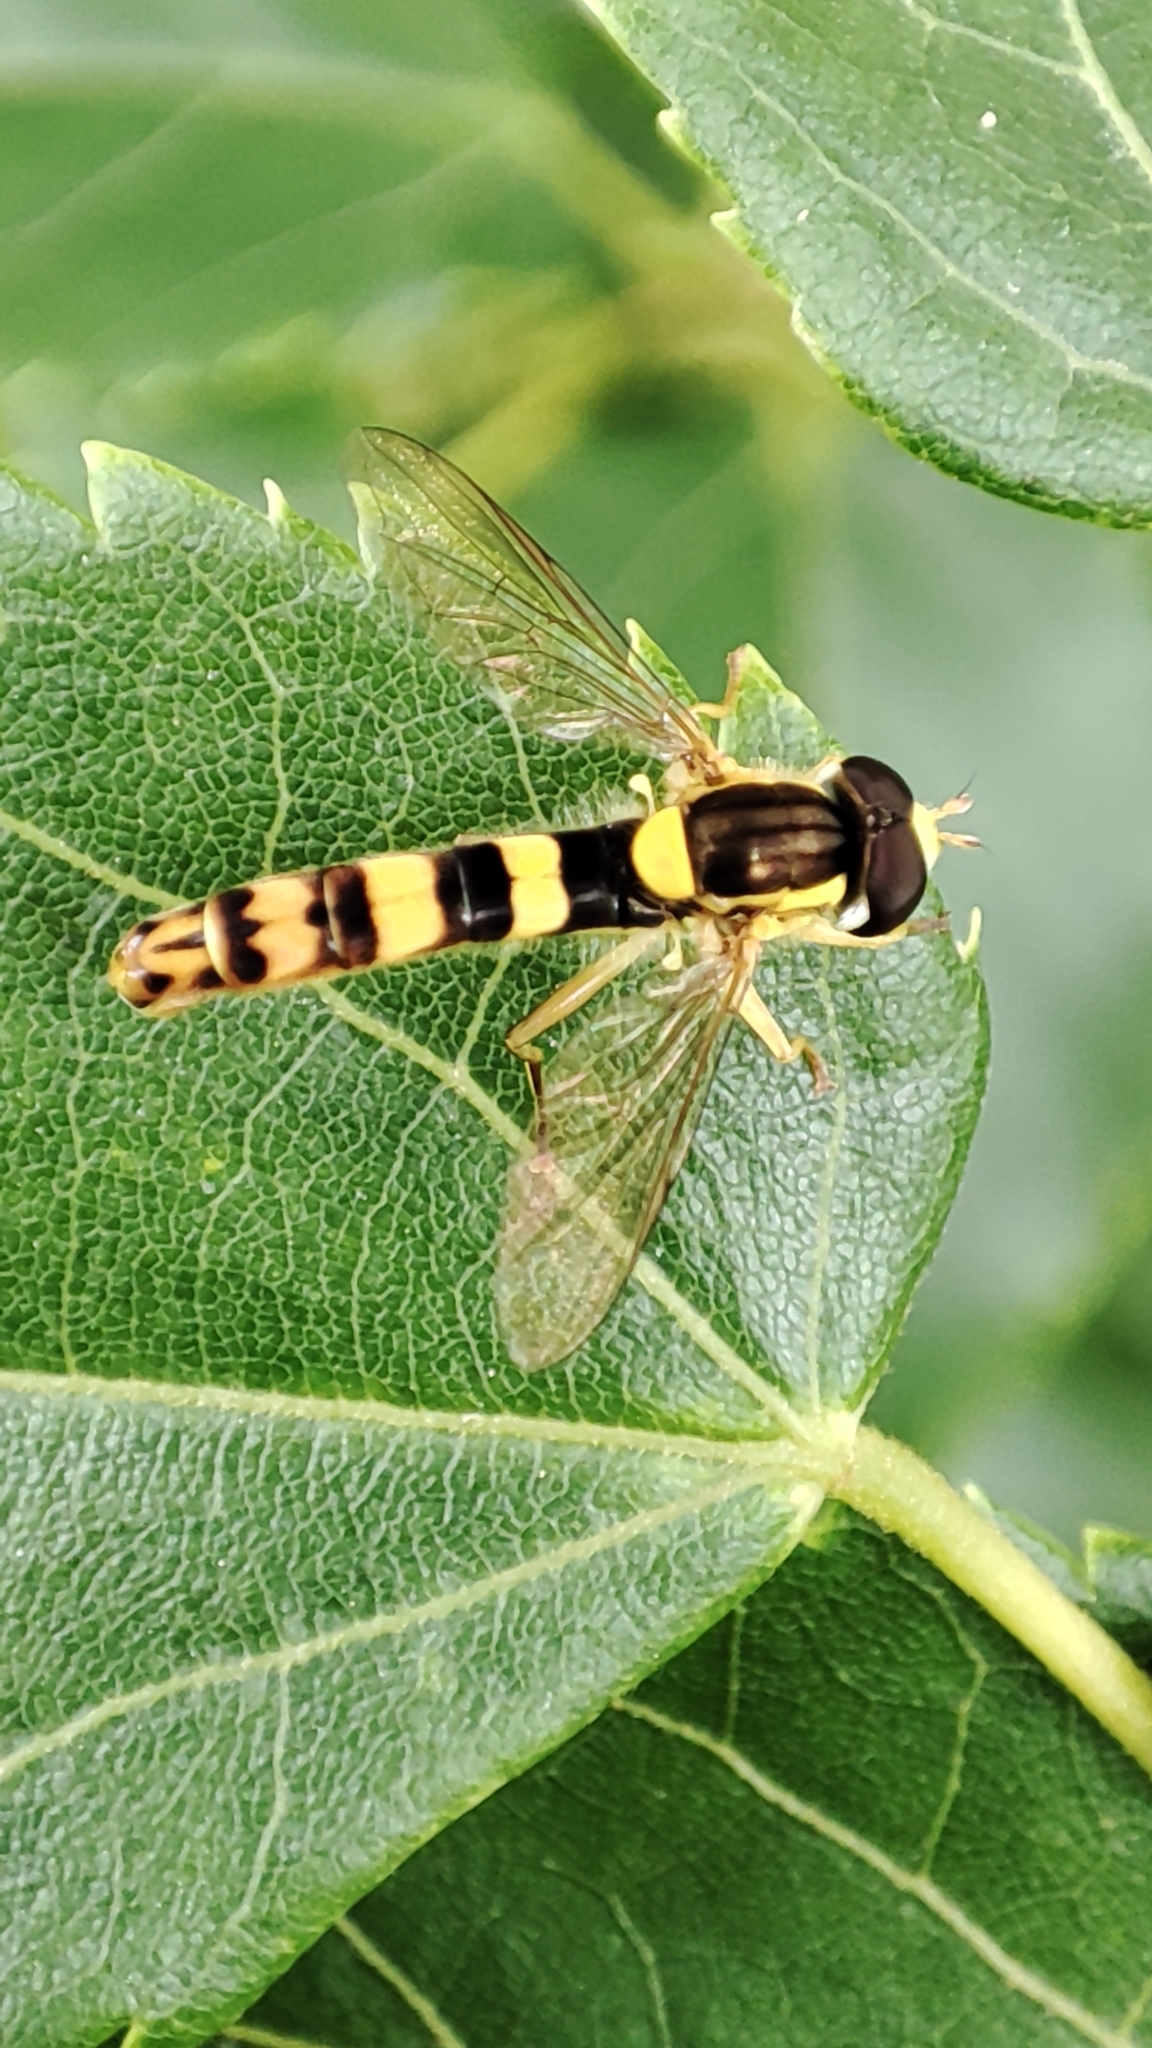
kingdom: Animalia
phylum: Arthropoda
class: Insecta
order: Diptera
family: Syrphidae
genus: Sphaerophoria
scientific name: Sphaerophoria scripta
